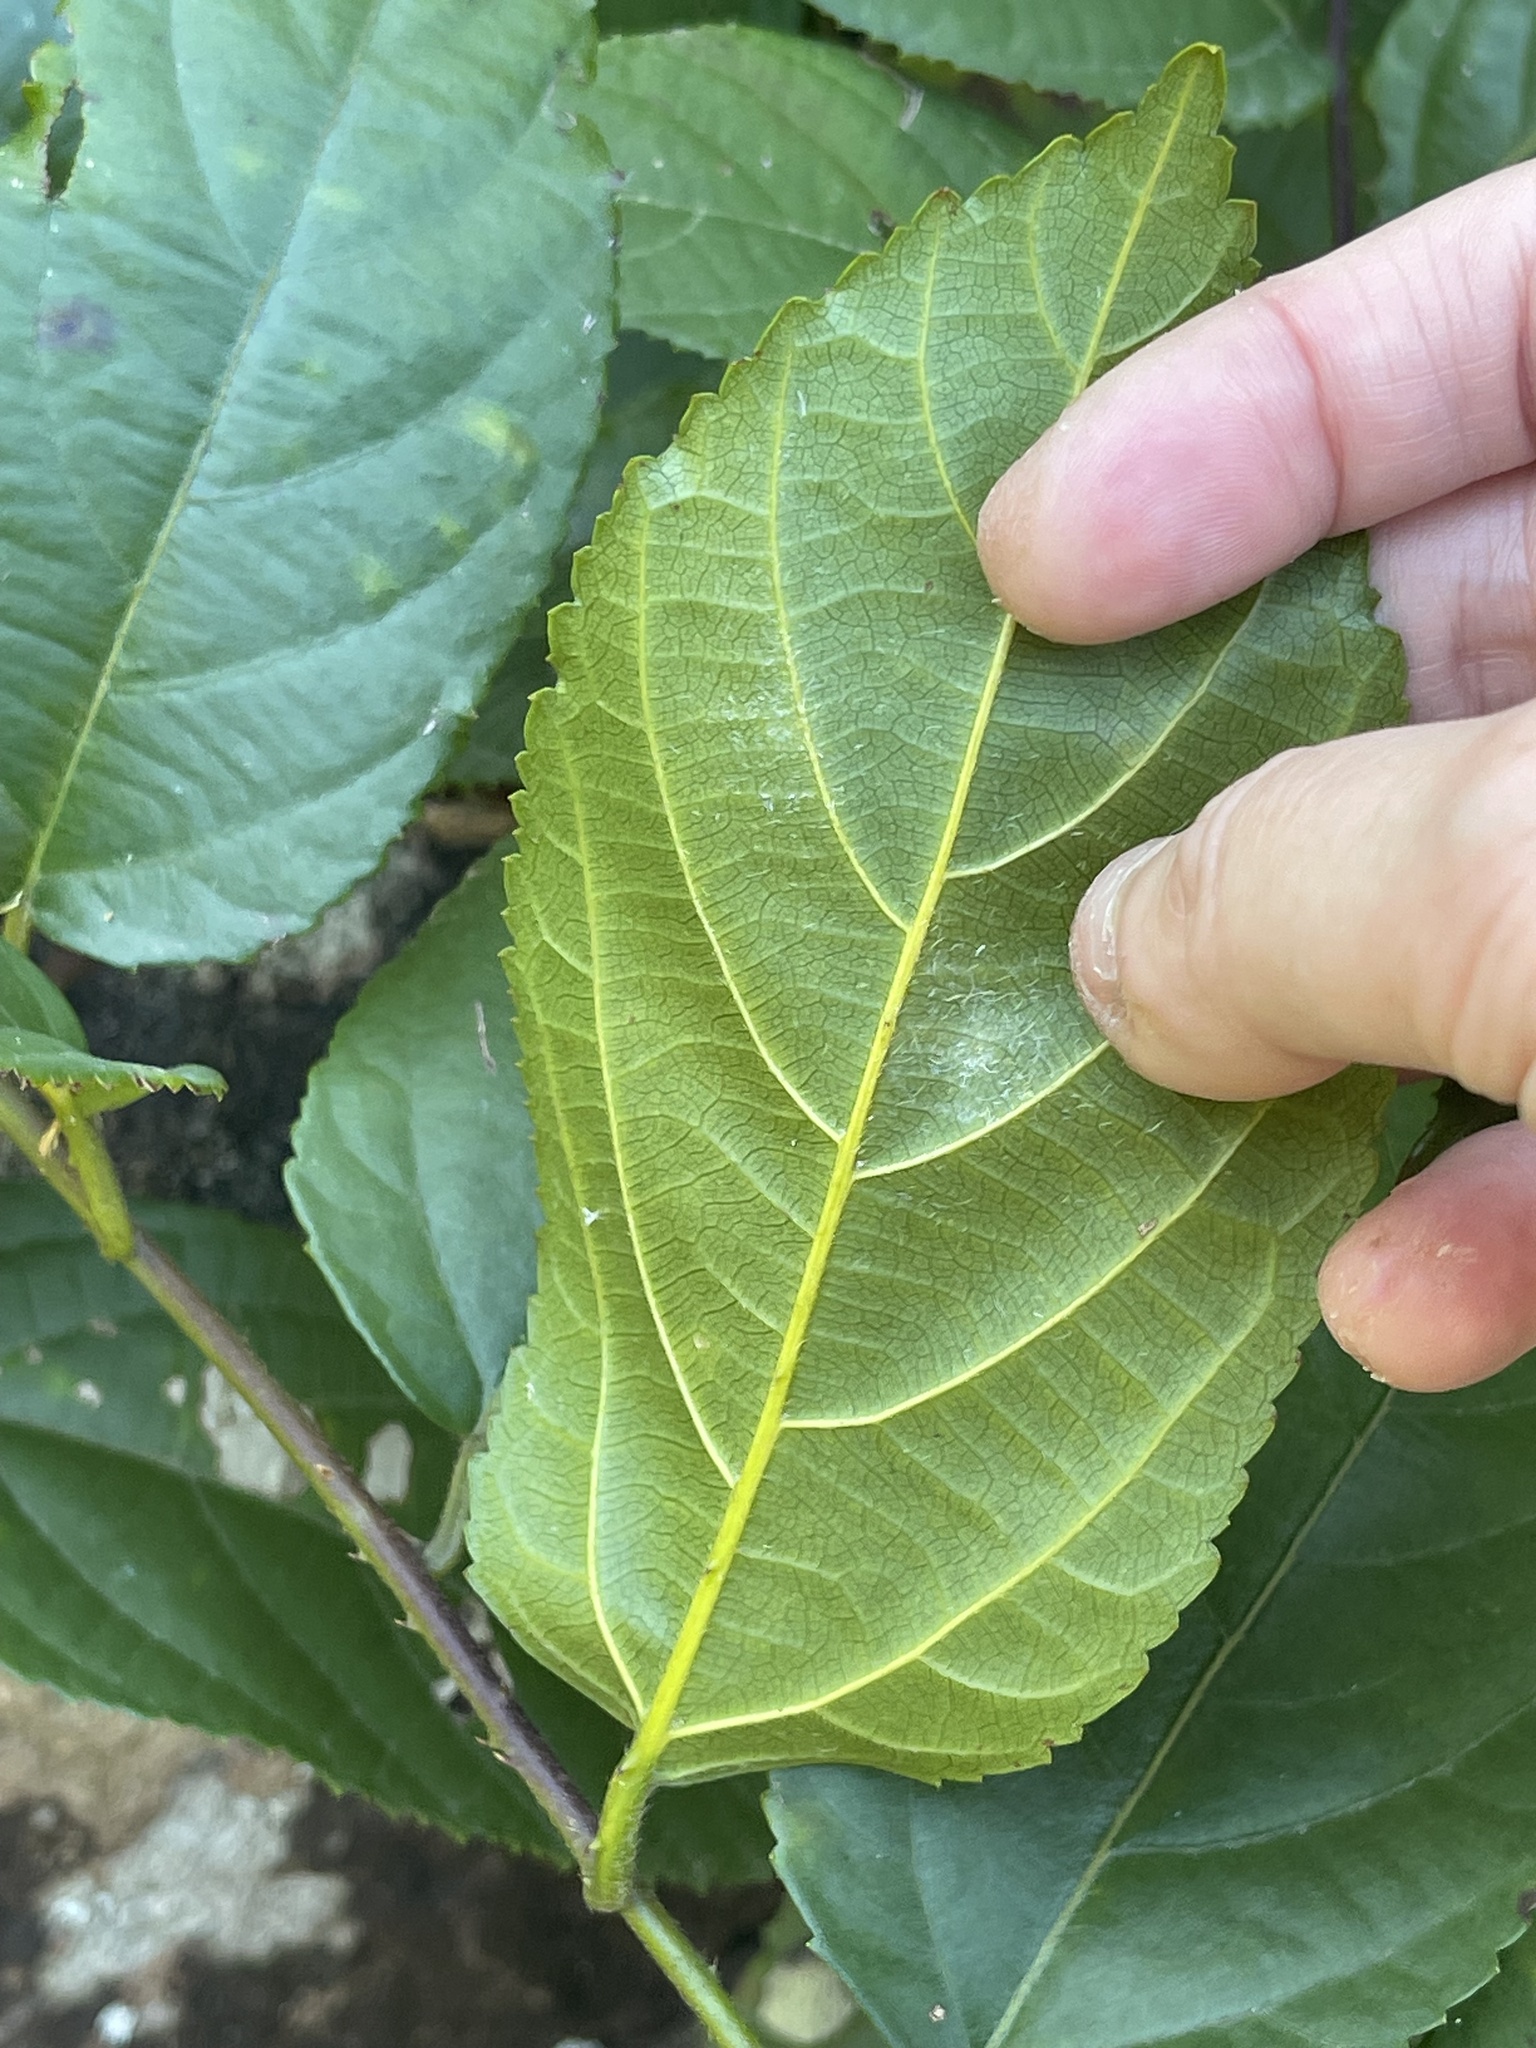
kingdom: Plantae
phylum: Tracheophyta
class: Magnoliopsida
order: Rosales
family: Rosaceae
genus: Rubus
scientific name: Rubus
